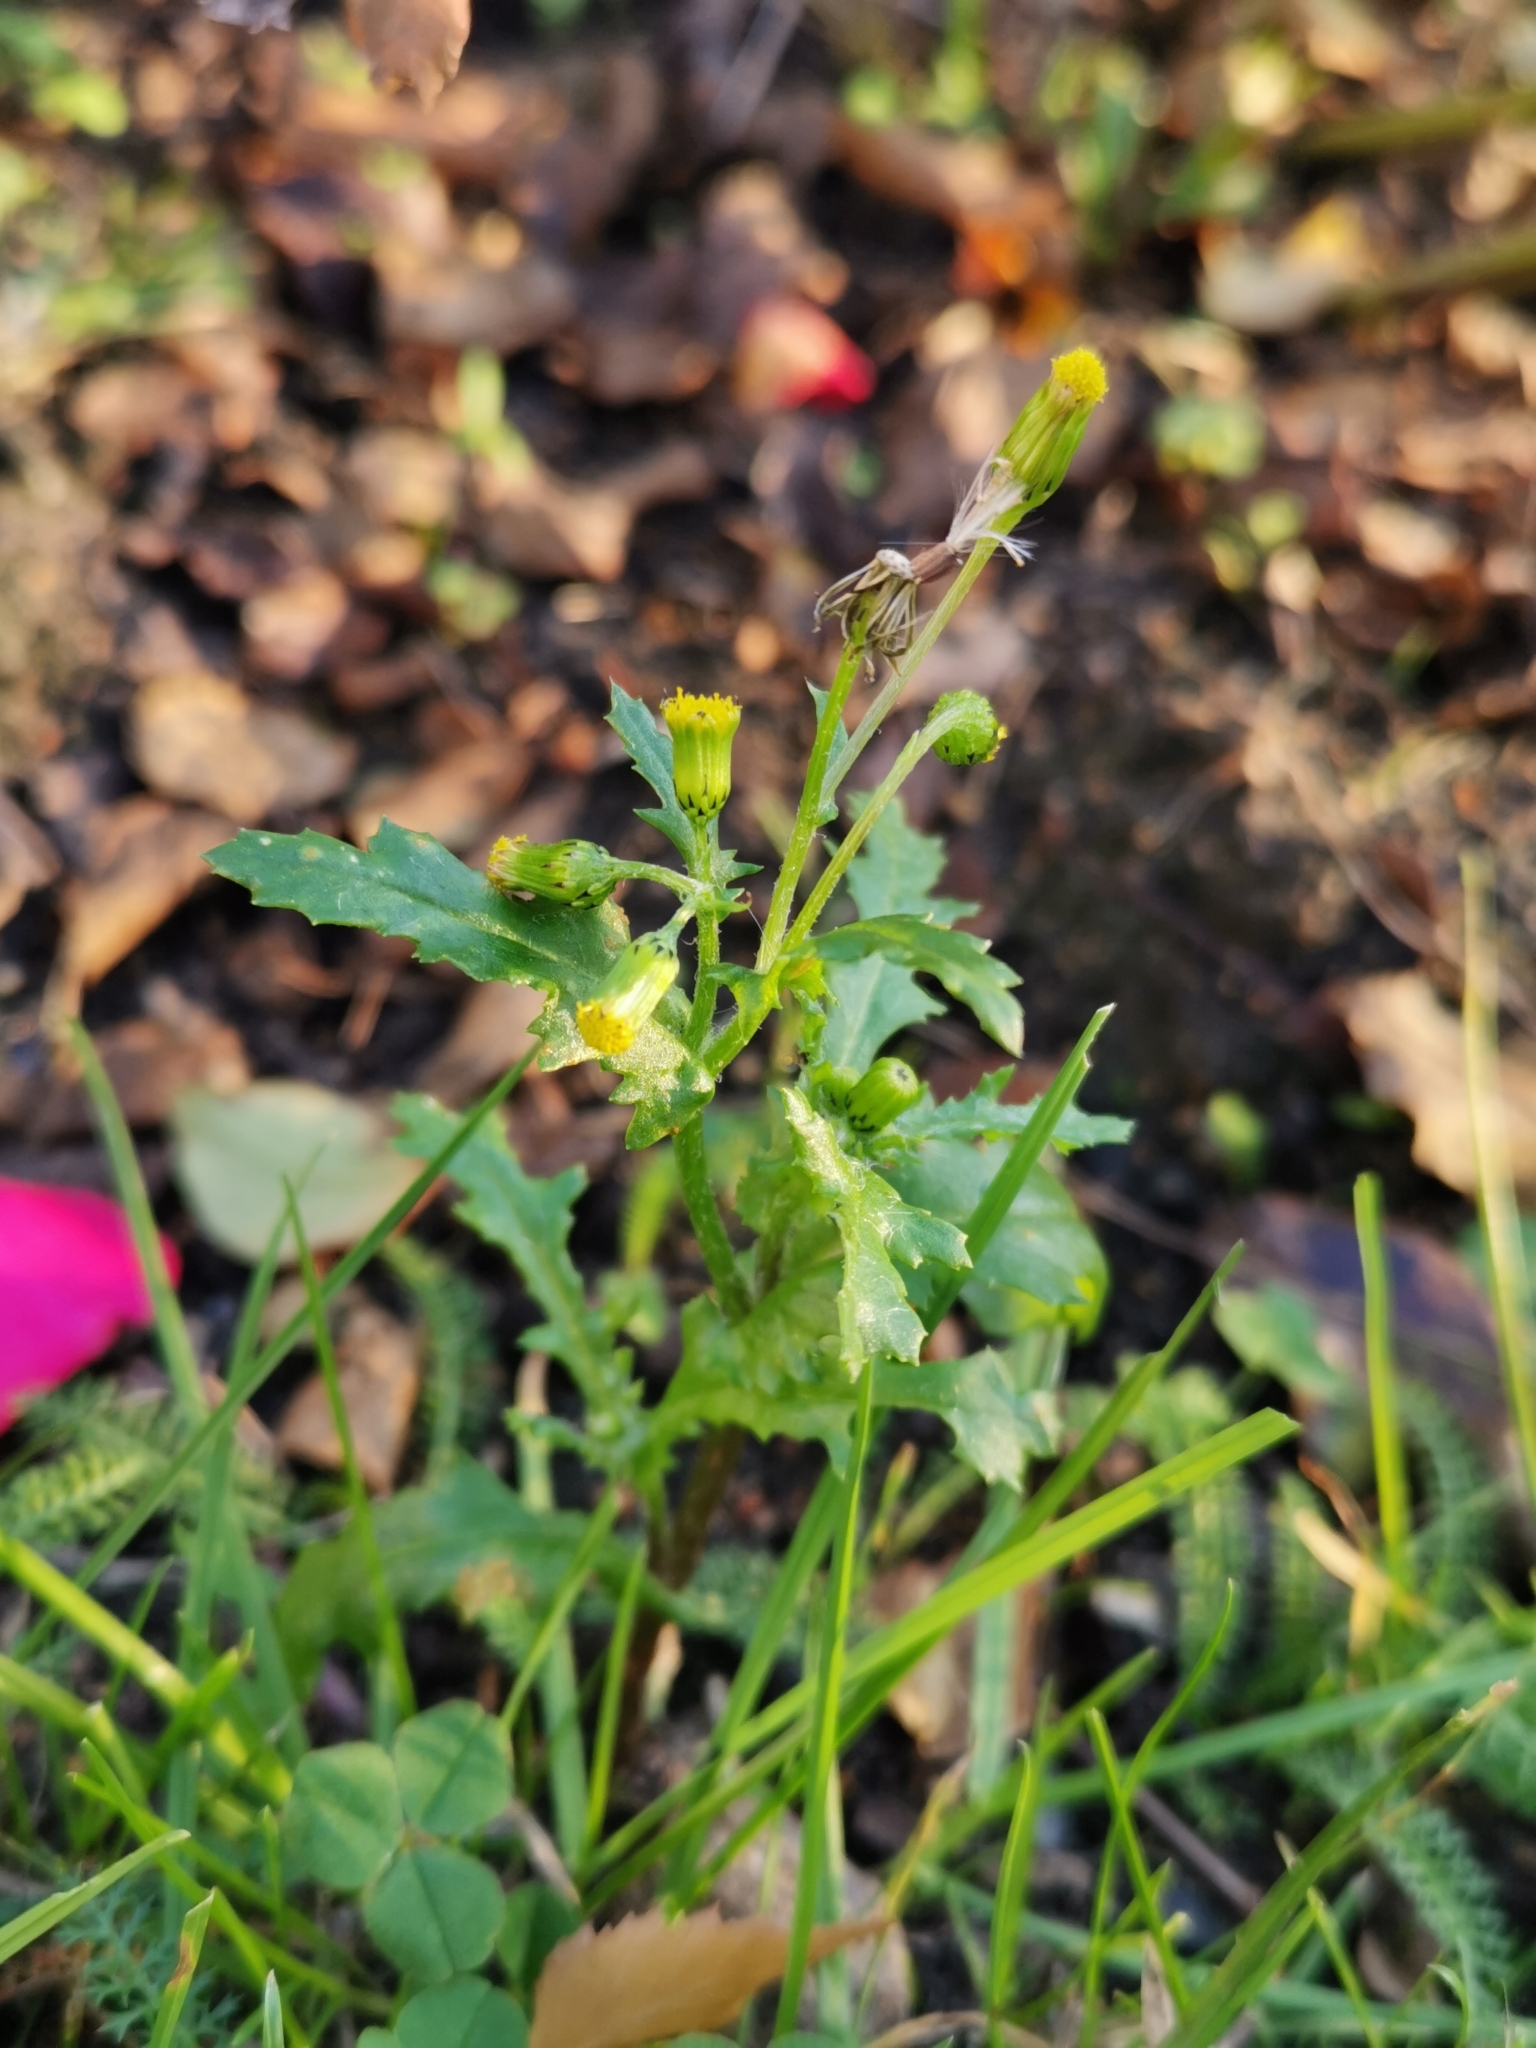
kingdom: Plantae
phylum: Tracheophyta
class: Magnoliopsida
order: Asterales
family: Asteraceae
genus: Senecio
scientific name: Senecio vulgaris
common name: Old-man-in-the-spring
